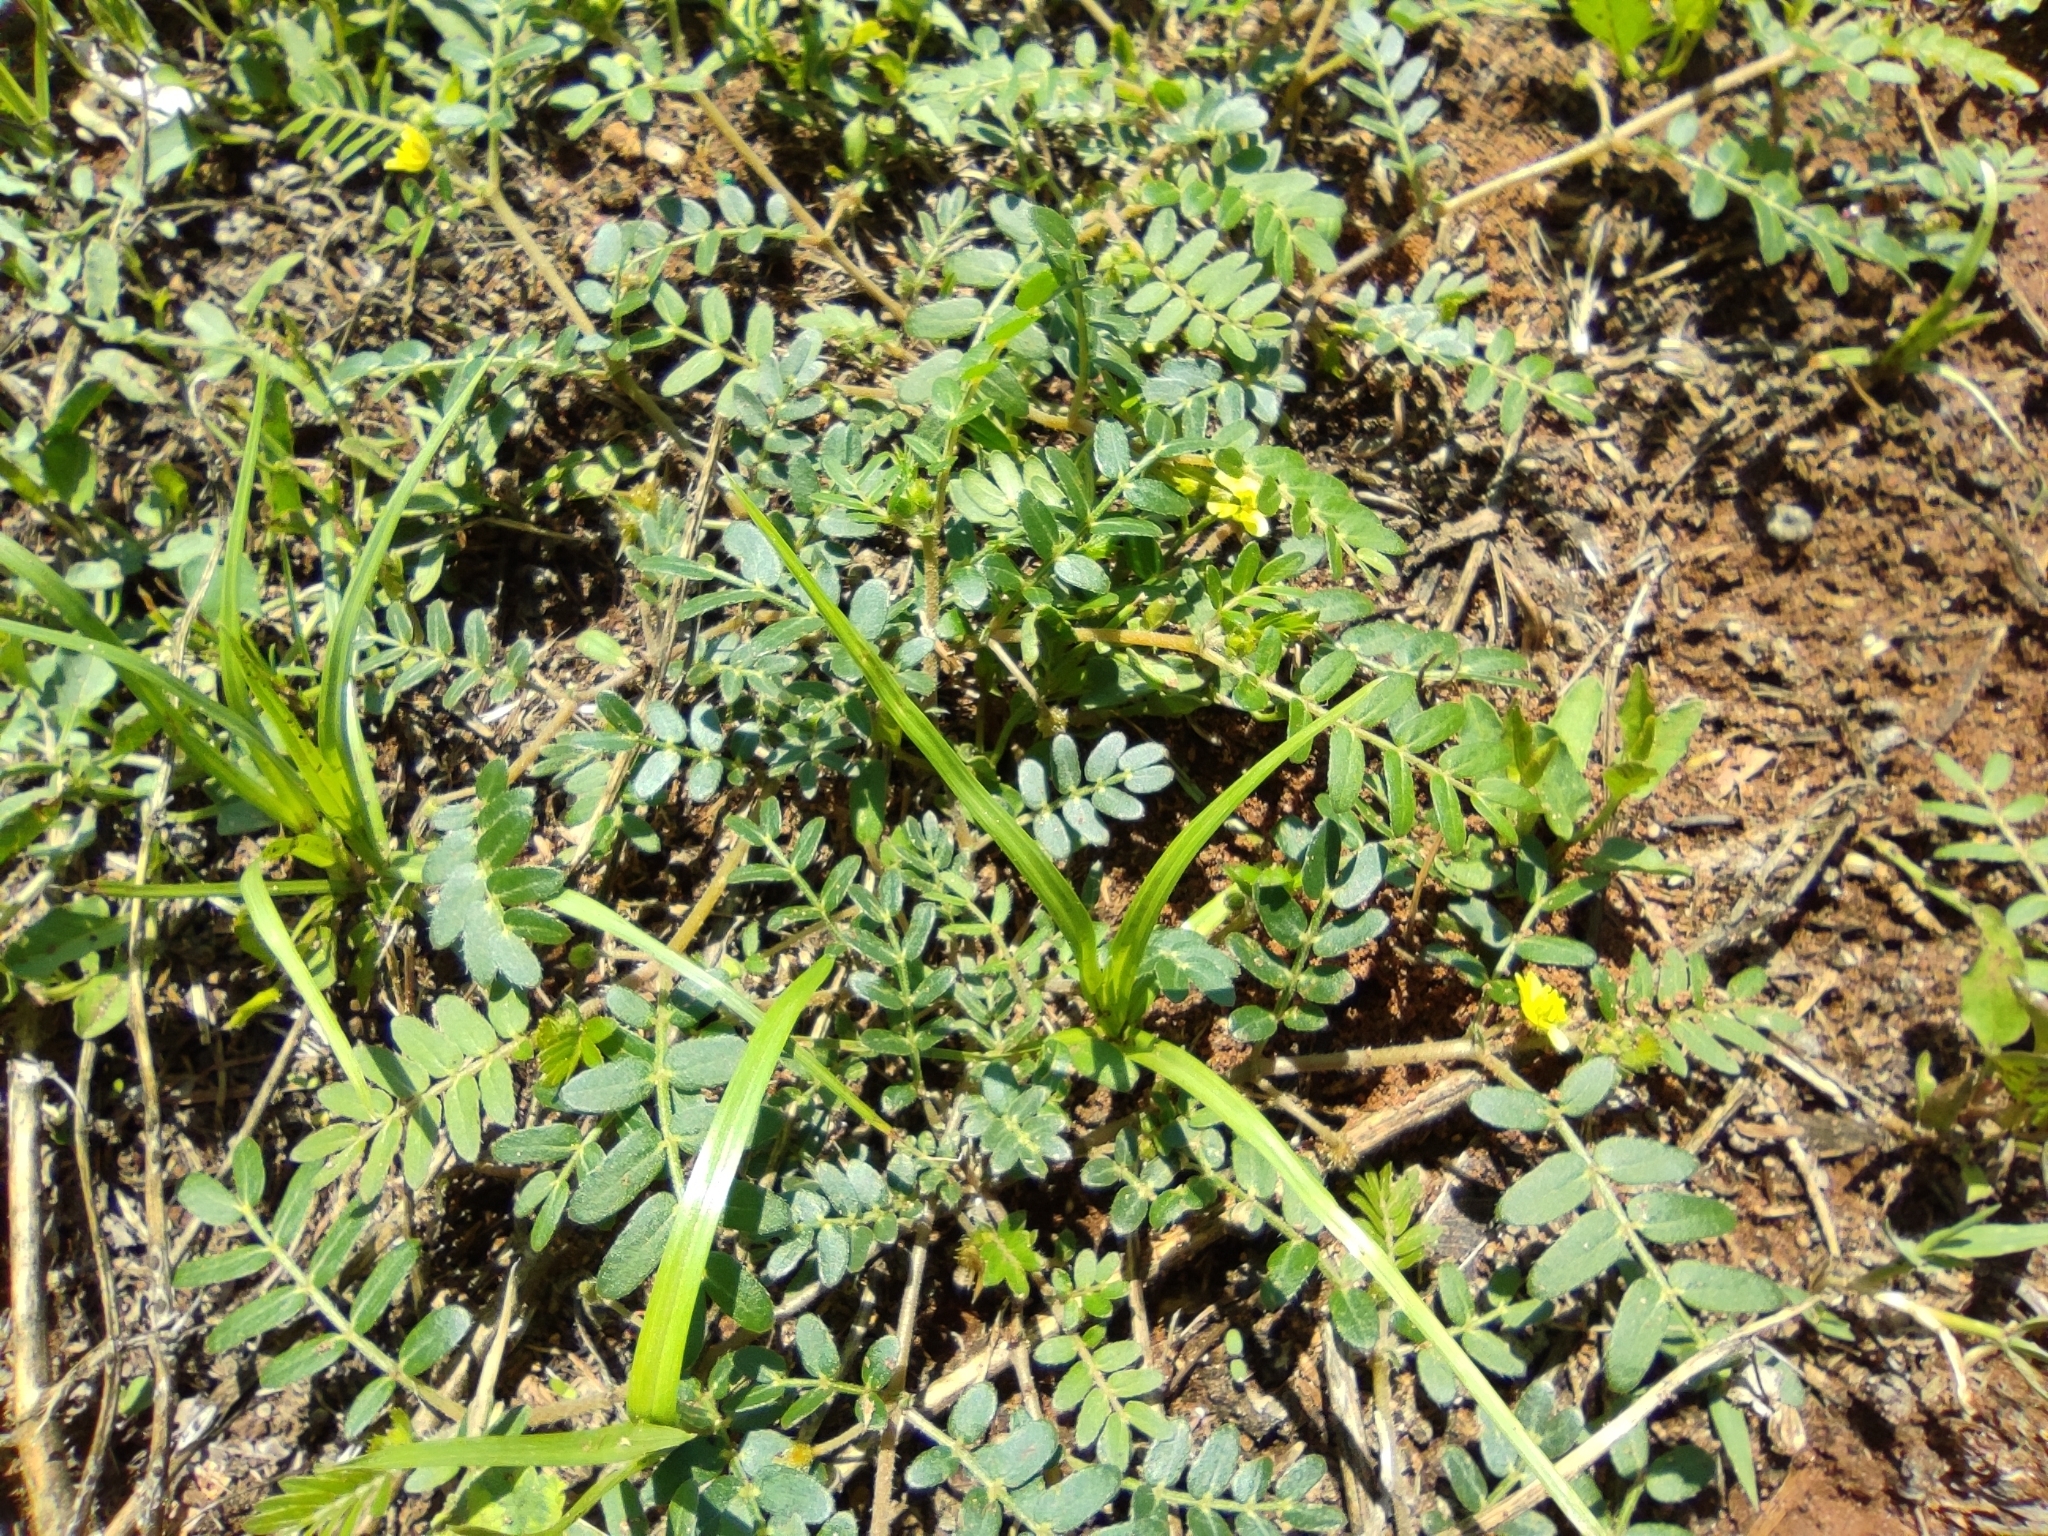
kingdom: Plantae
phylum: Tracheophyta
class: Magnoliopsida
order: Zygophyllales
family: Zygophyllaceae
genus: Tribulus
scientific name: Tribulus terrestris
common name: Puncturevine
